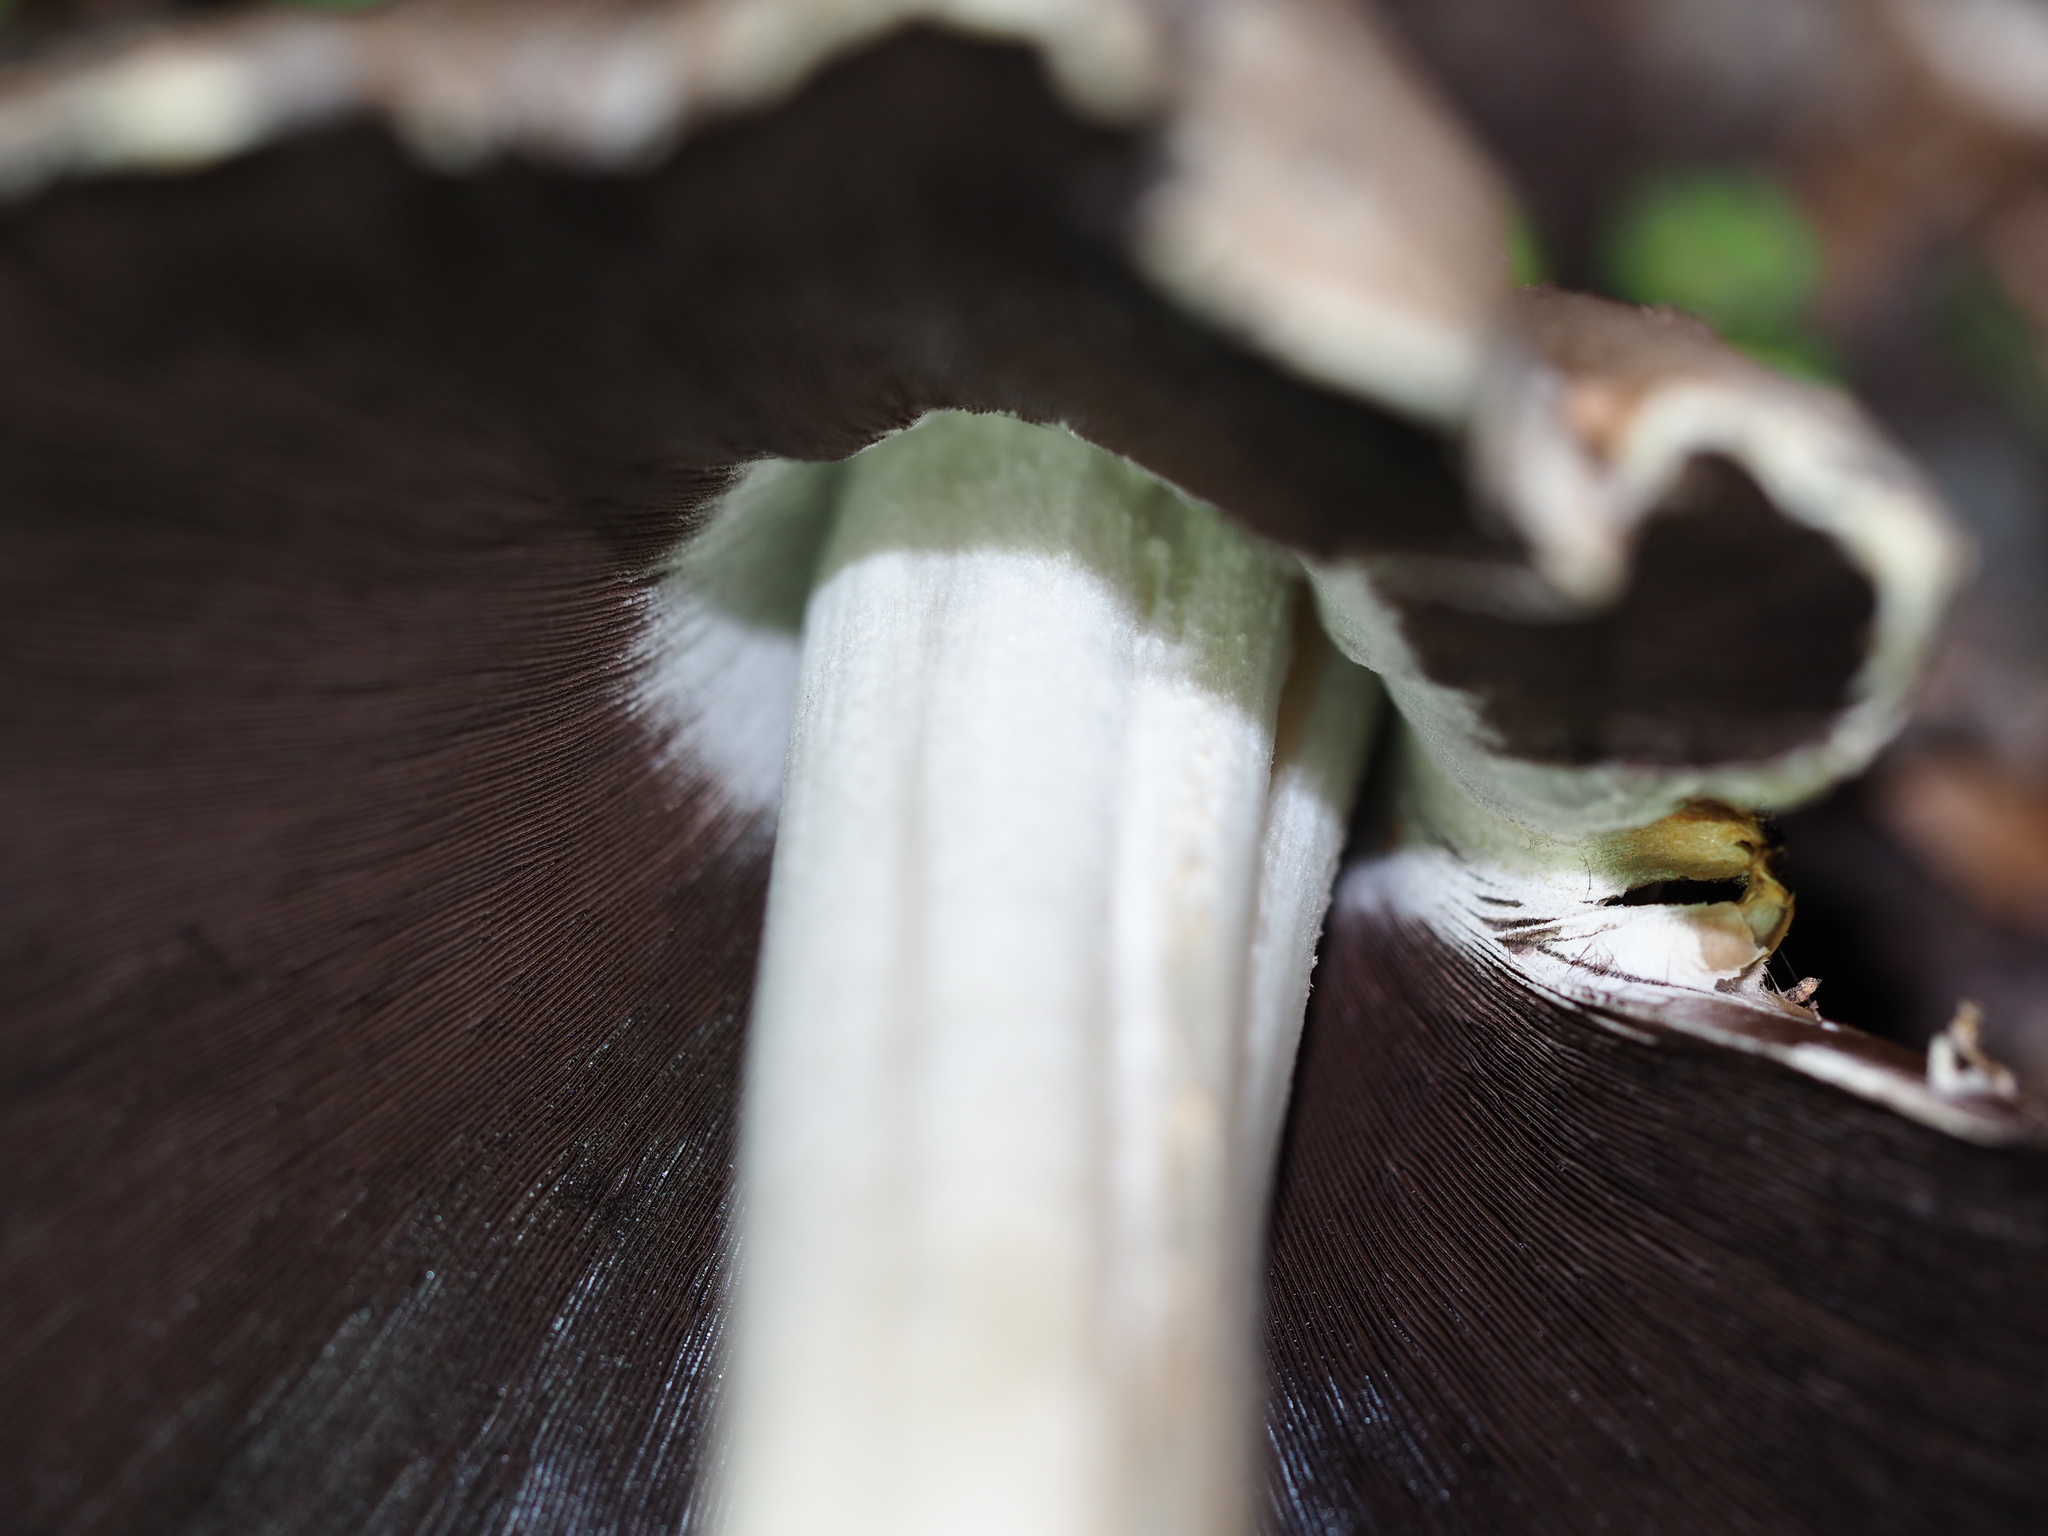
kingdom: Fungi
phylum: Basidiomycota
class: Agaricomycetes
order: Agaricales
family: Psathyrellaceae
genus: Coprinopsis
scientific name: Coprinopsis atramentaria
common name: Common ink-cap
